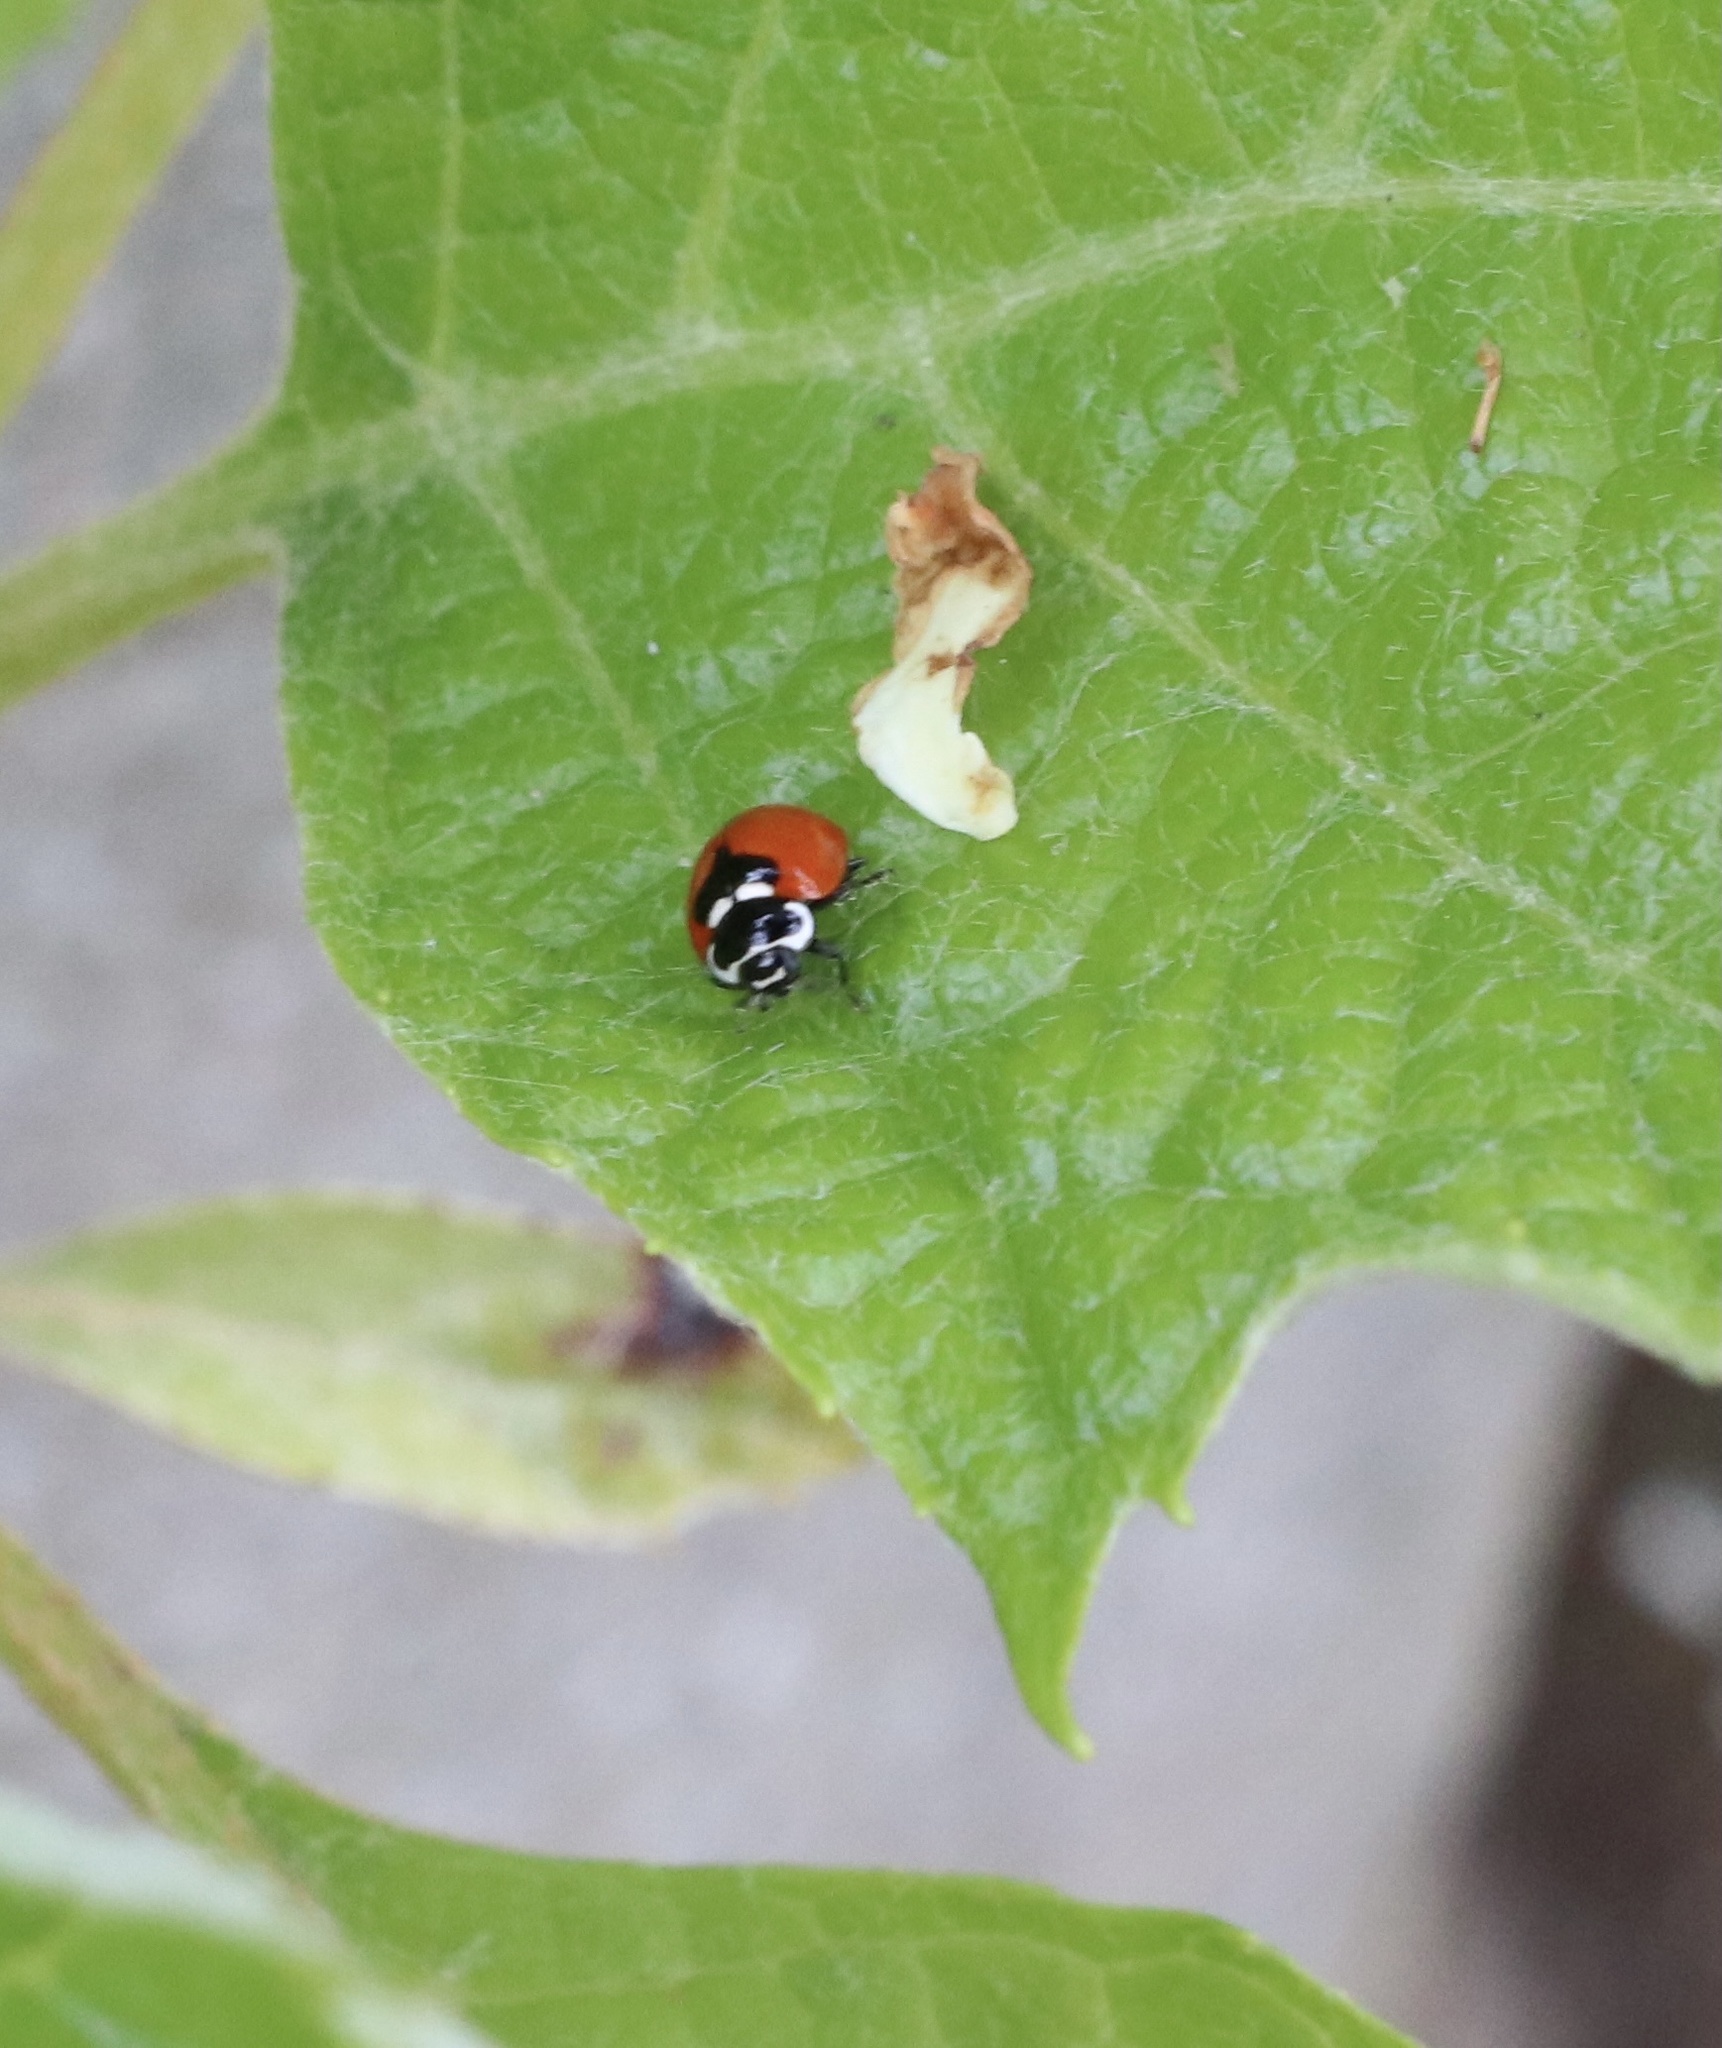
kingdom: Animalia
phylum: Arthropoda
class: Insecta
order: Coleoptera
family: Coccinellidae
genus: Adalia
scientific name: Adalia deficiens
